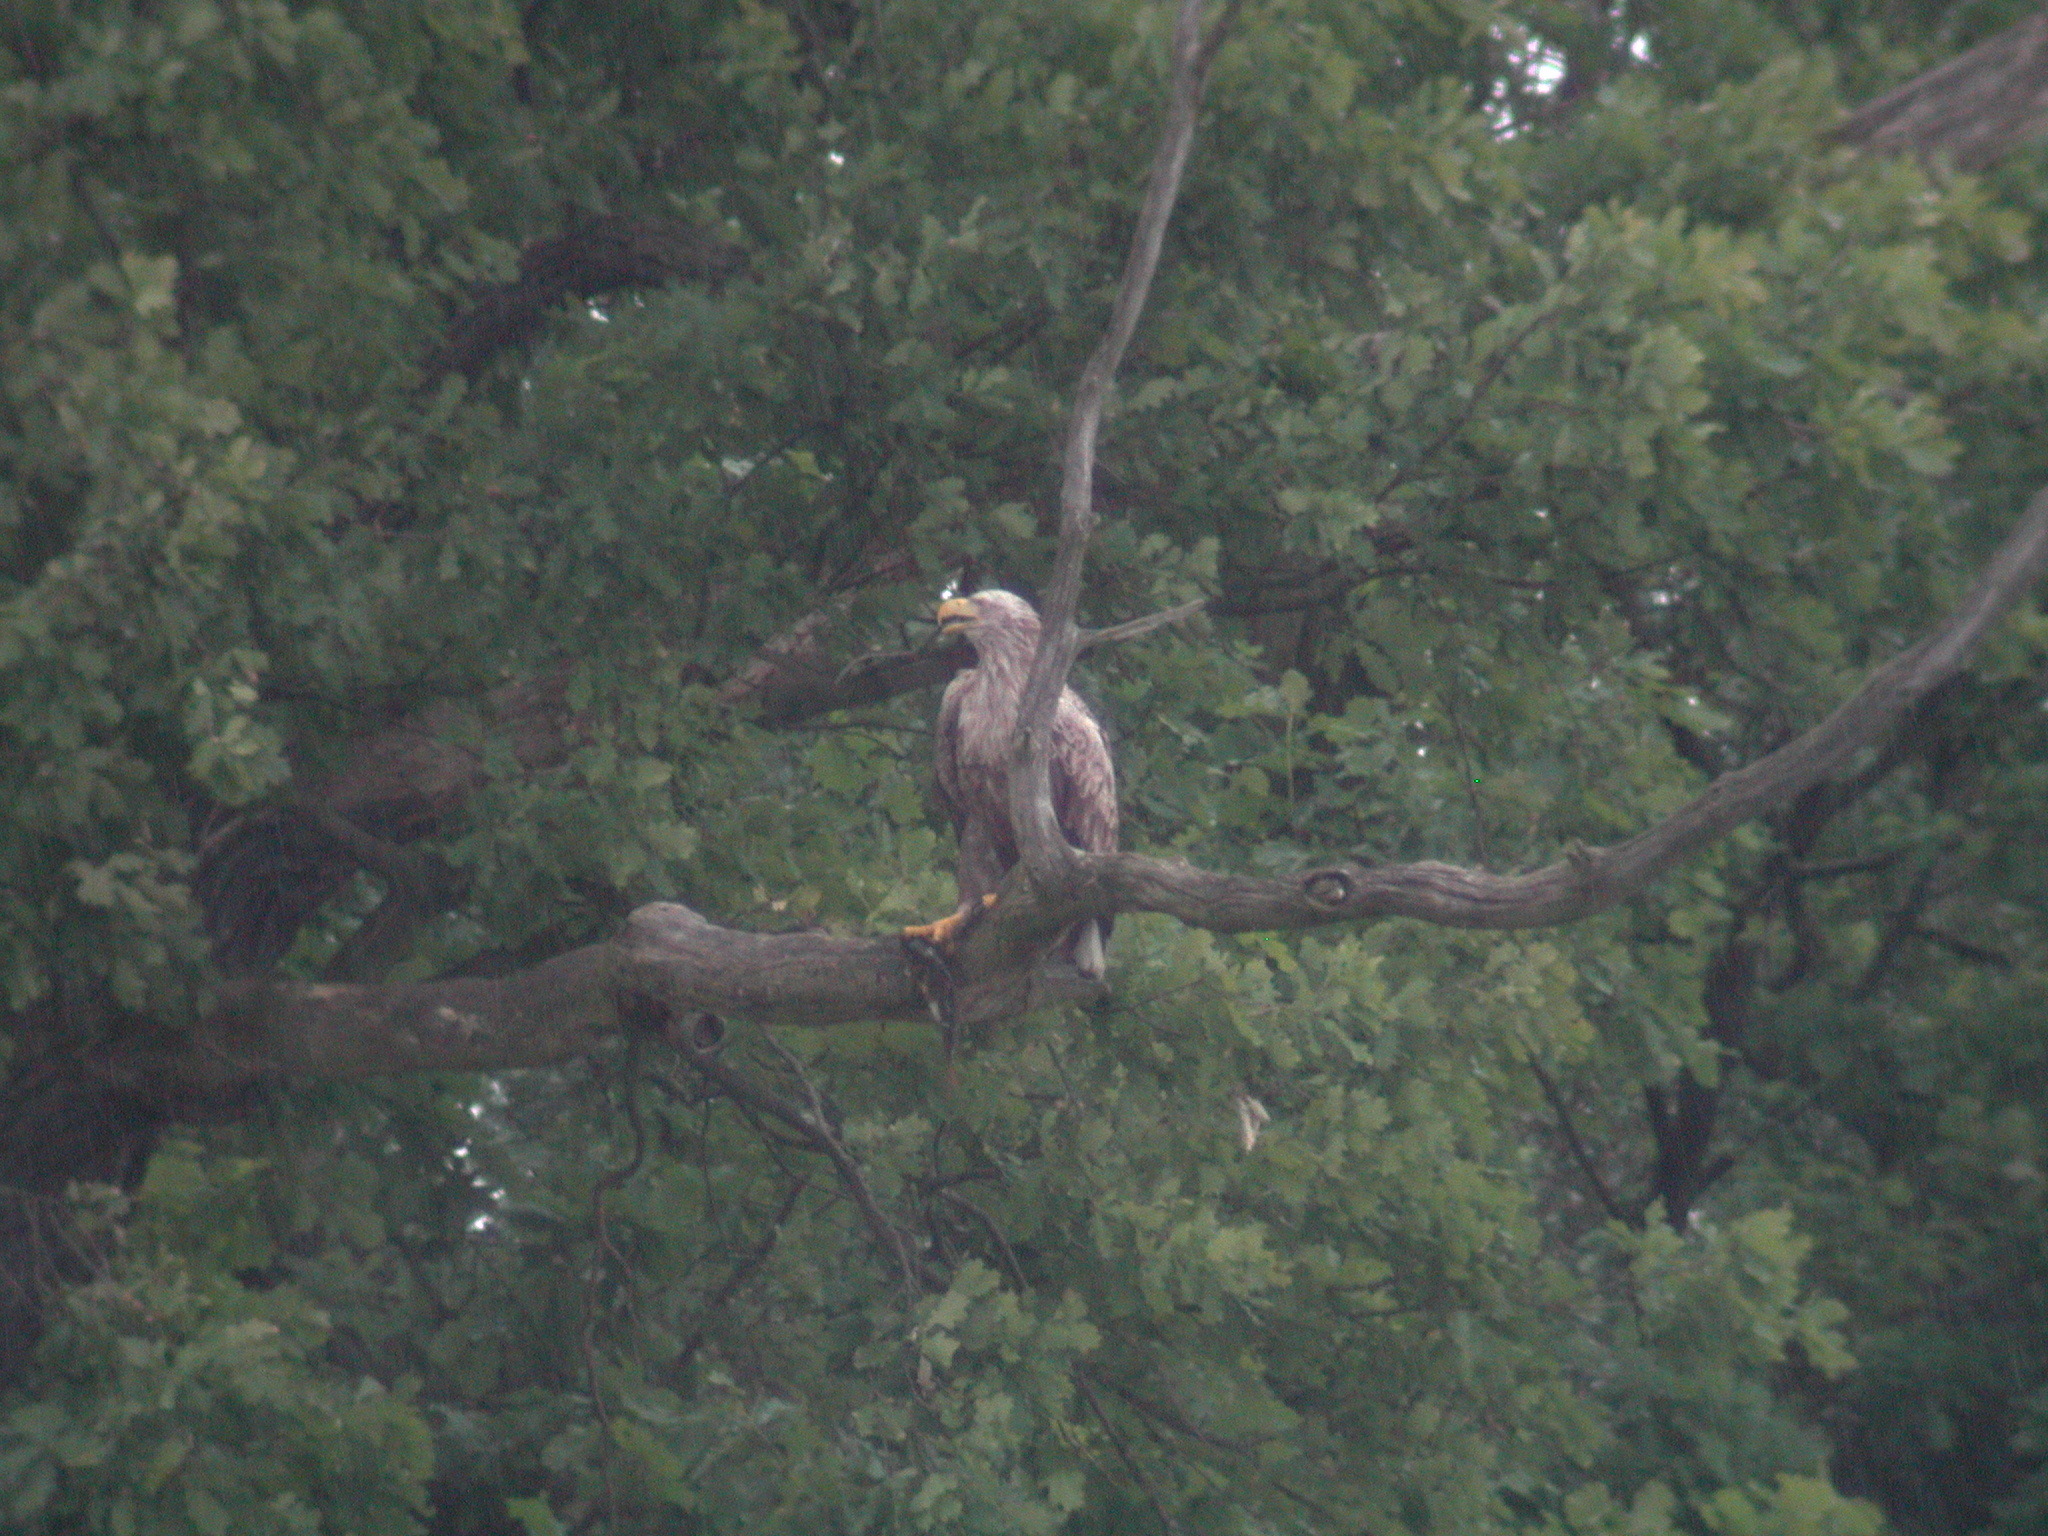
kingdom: Animalia
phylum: Chordata
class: Aves
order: Accipitriformes
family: Accipitridae
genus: Haliaeetus
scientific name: Haliaeetus albicilla
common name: White-tailed eagle
